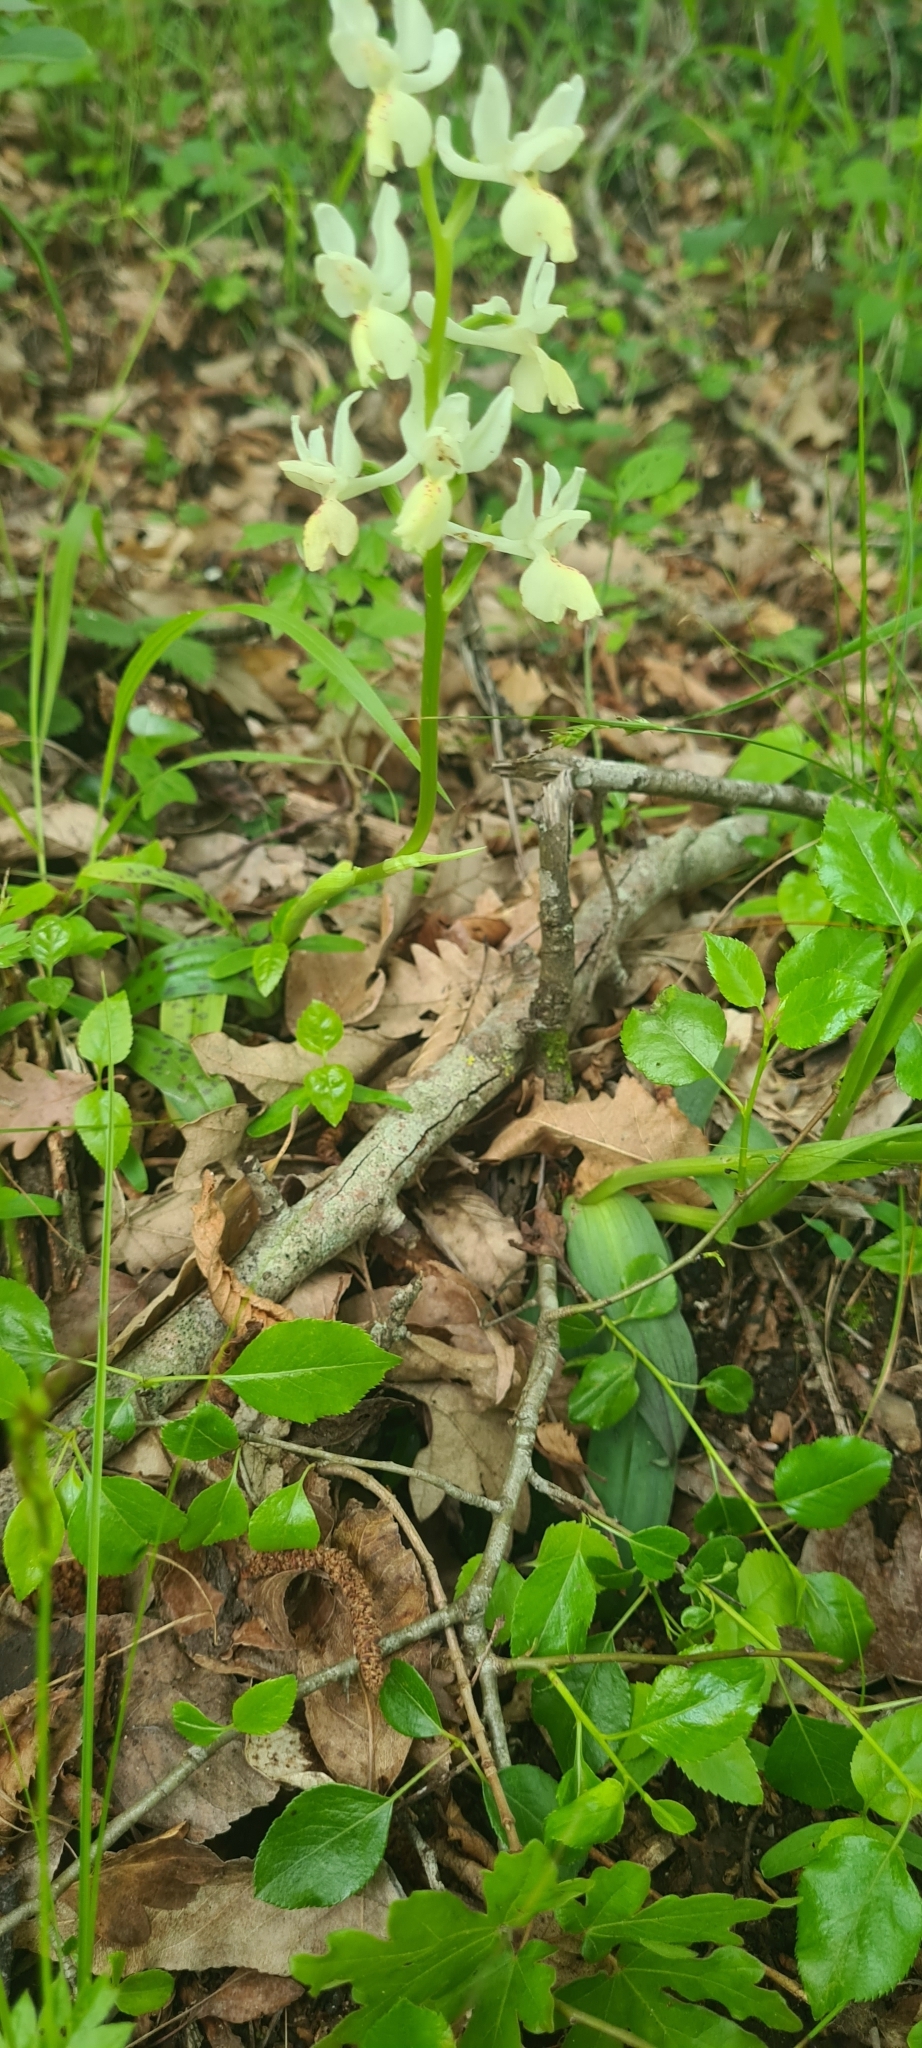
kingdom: Plantae
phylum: Tracheophyta
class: Liliopsida
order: Asparagales
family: Orchidaceae
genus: Orchis
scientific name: Orchis provincialis
